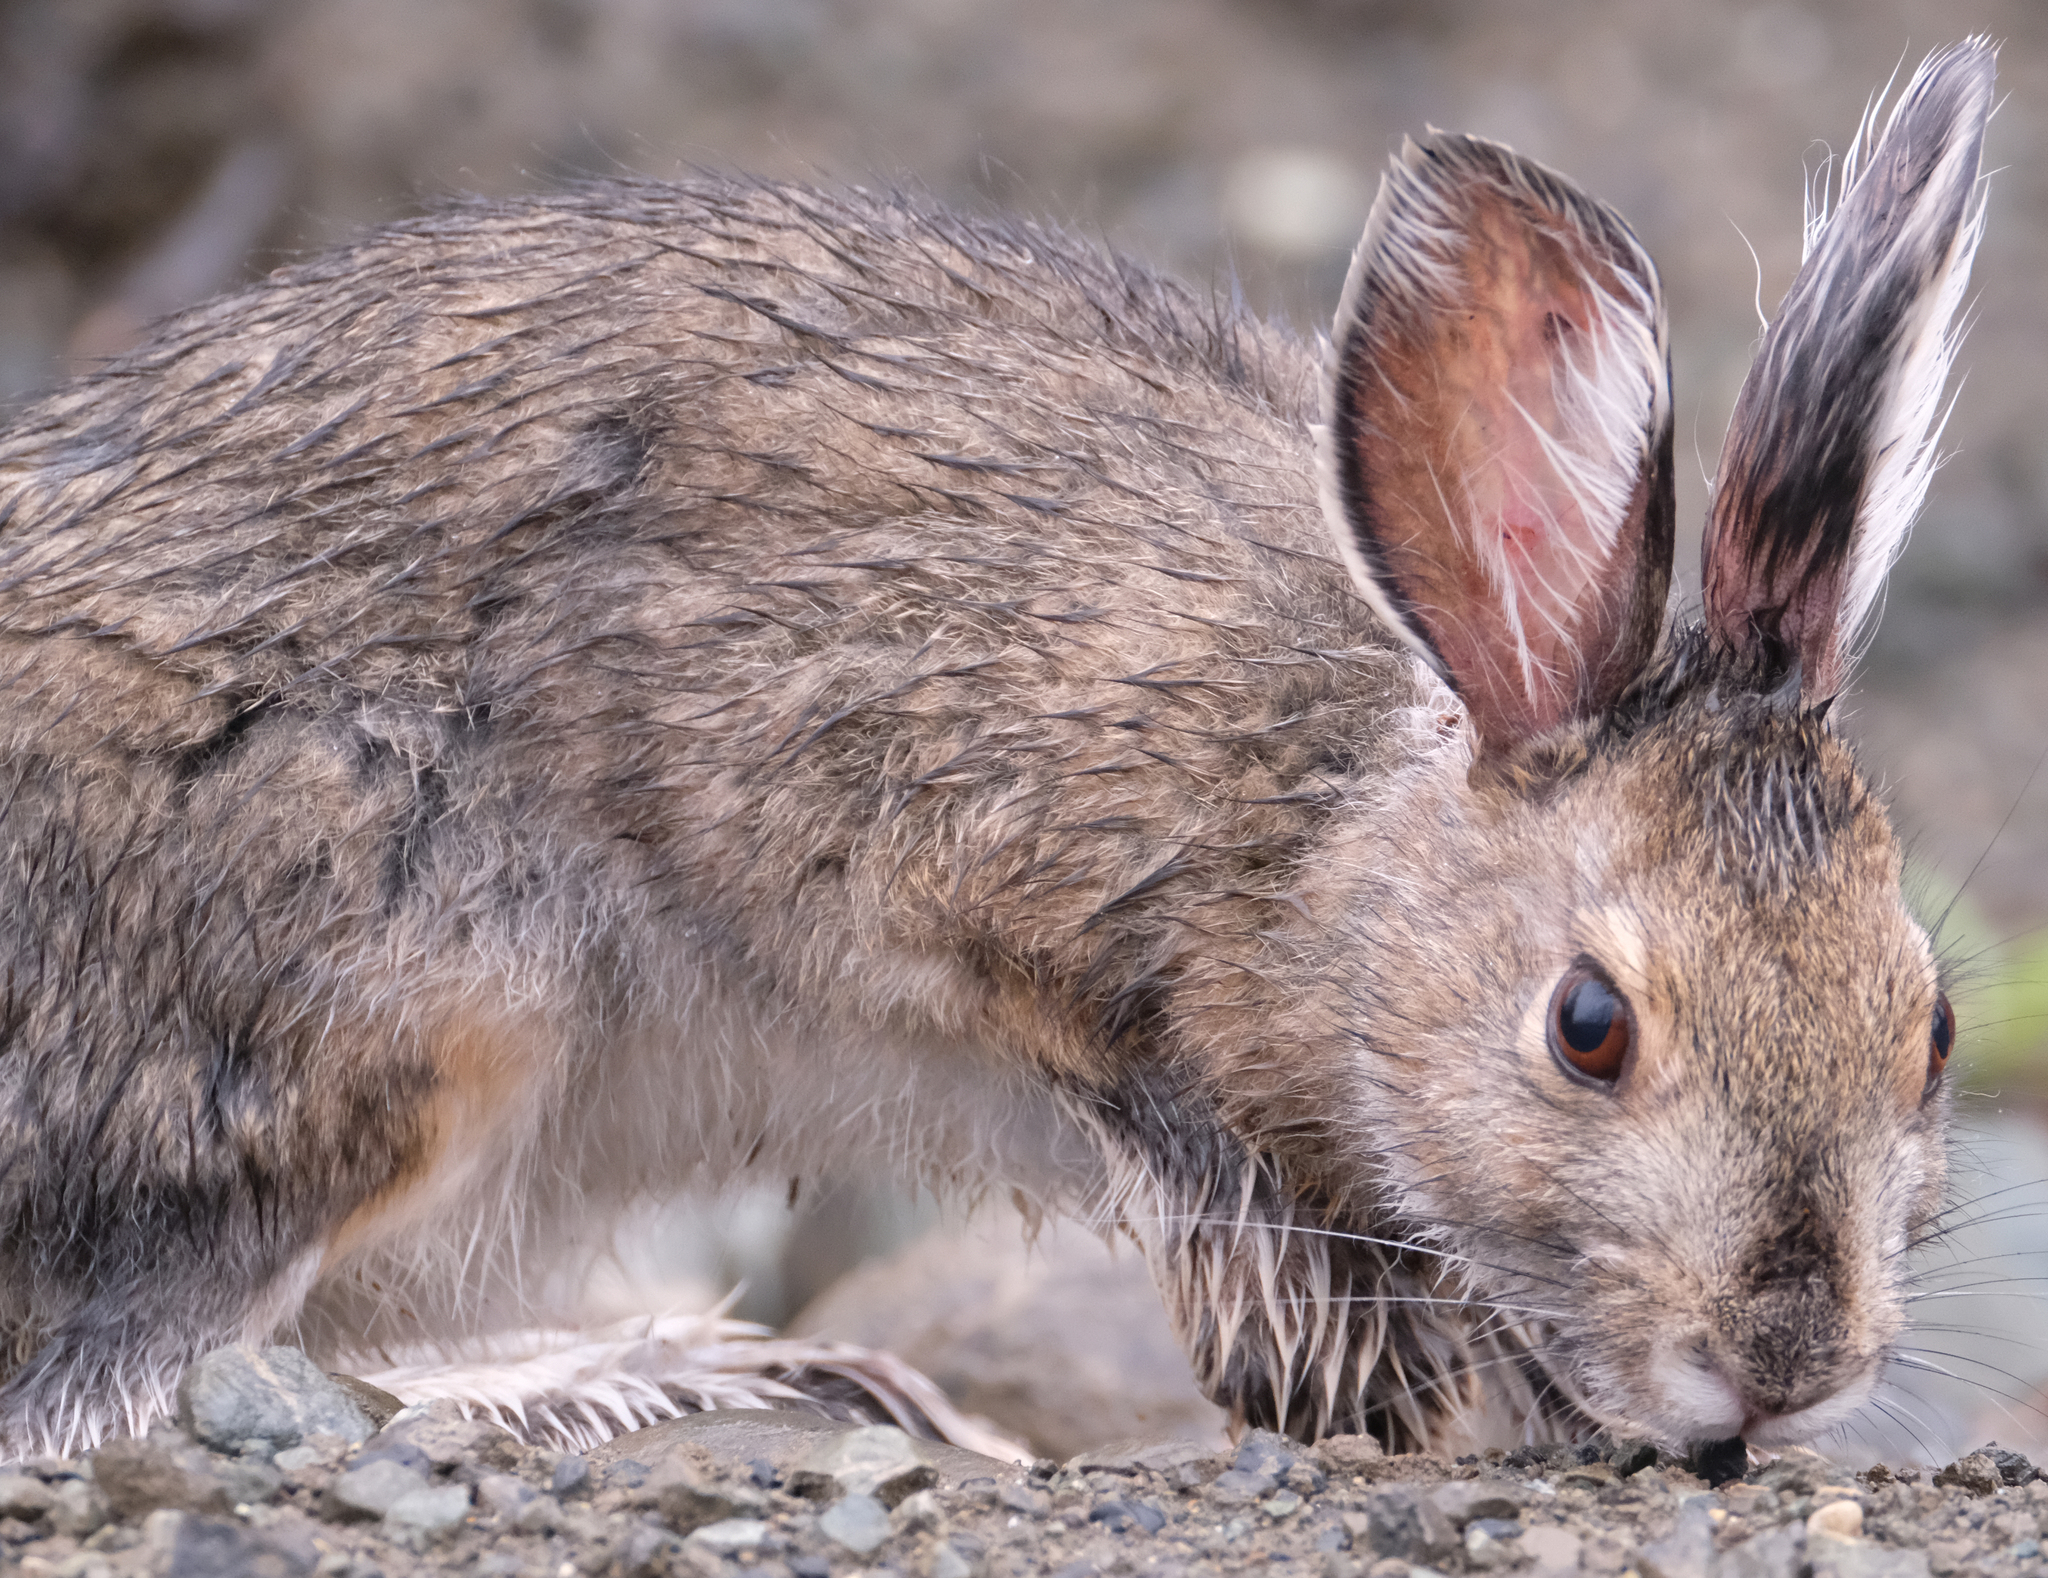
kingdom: Animalia
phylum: Chordata
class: Mammalia
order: Lagomorpha
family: Leporidae
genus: Lepus
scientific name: Lepus americanus
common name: Snowshoe hare
